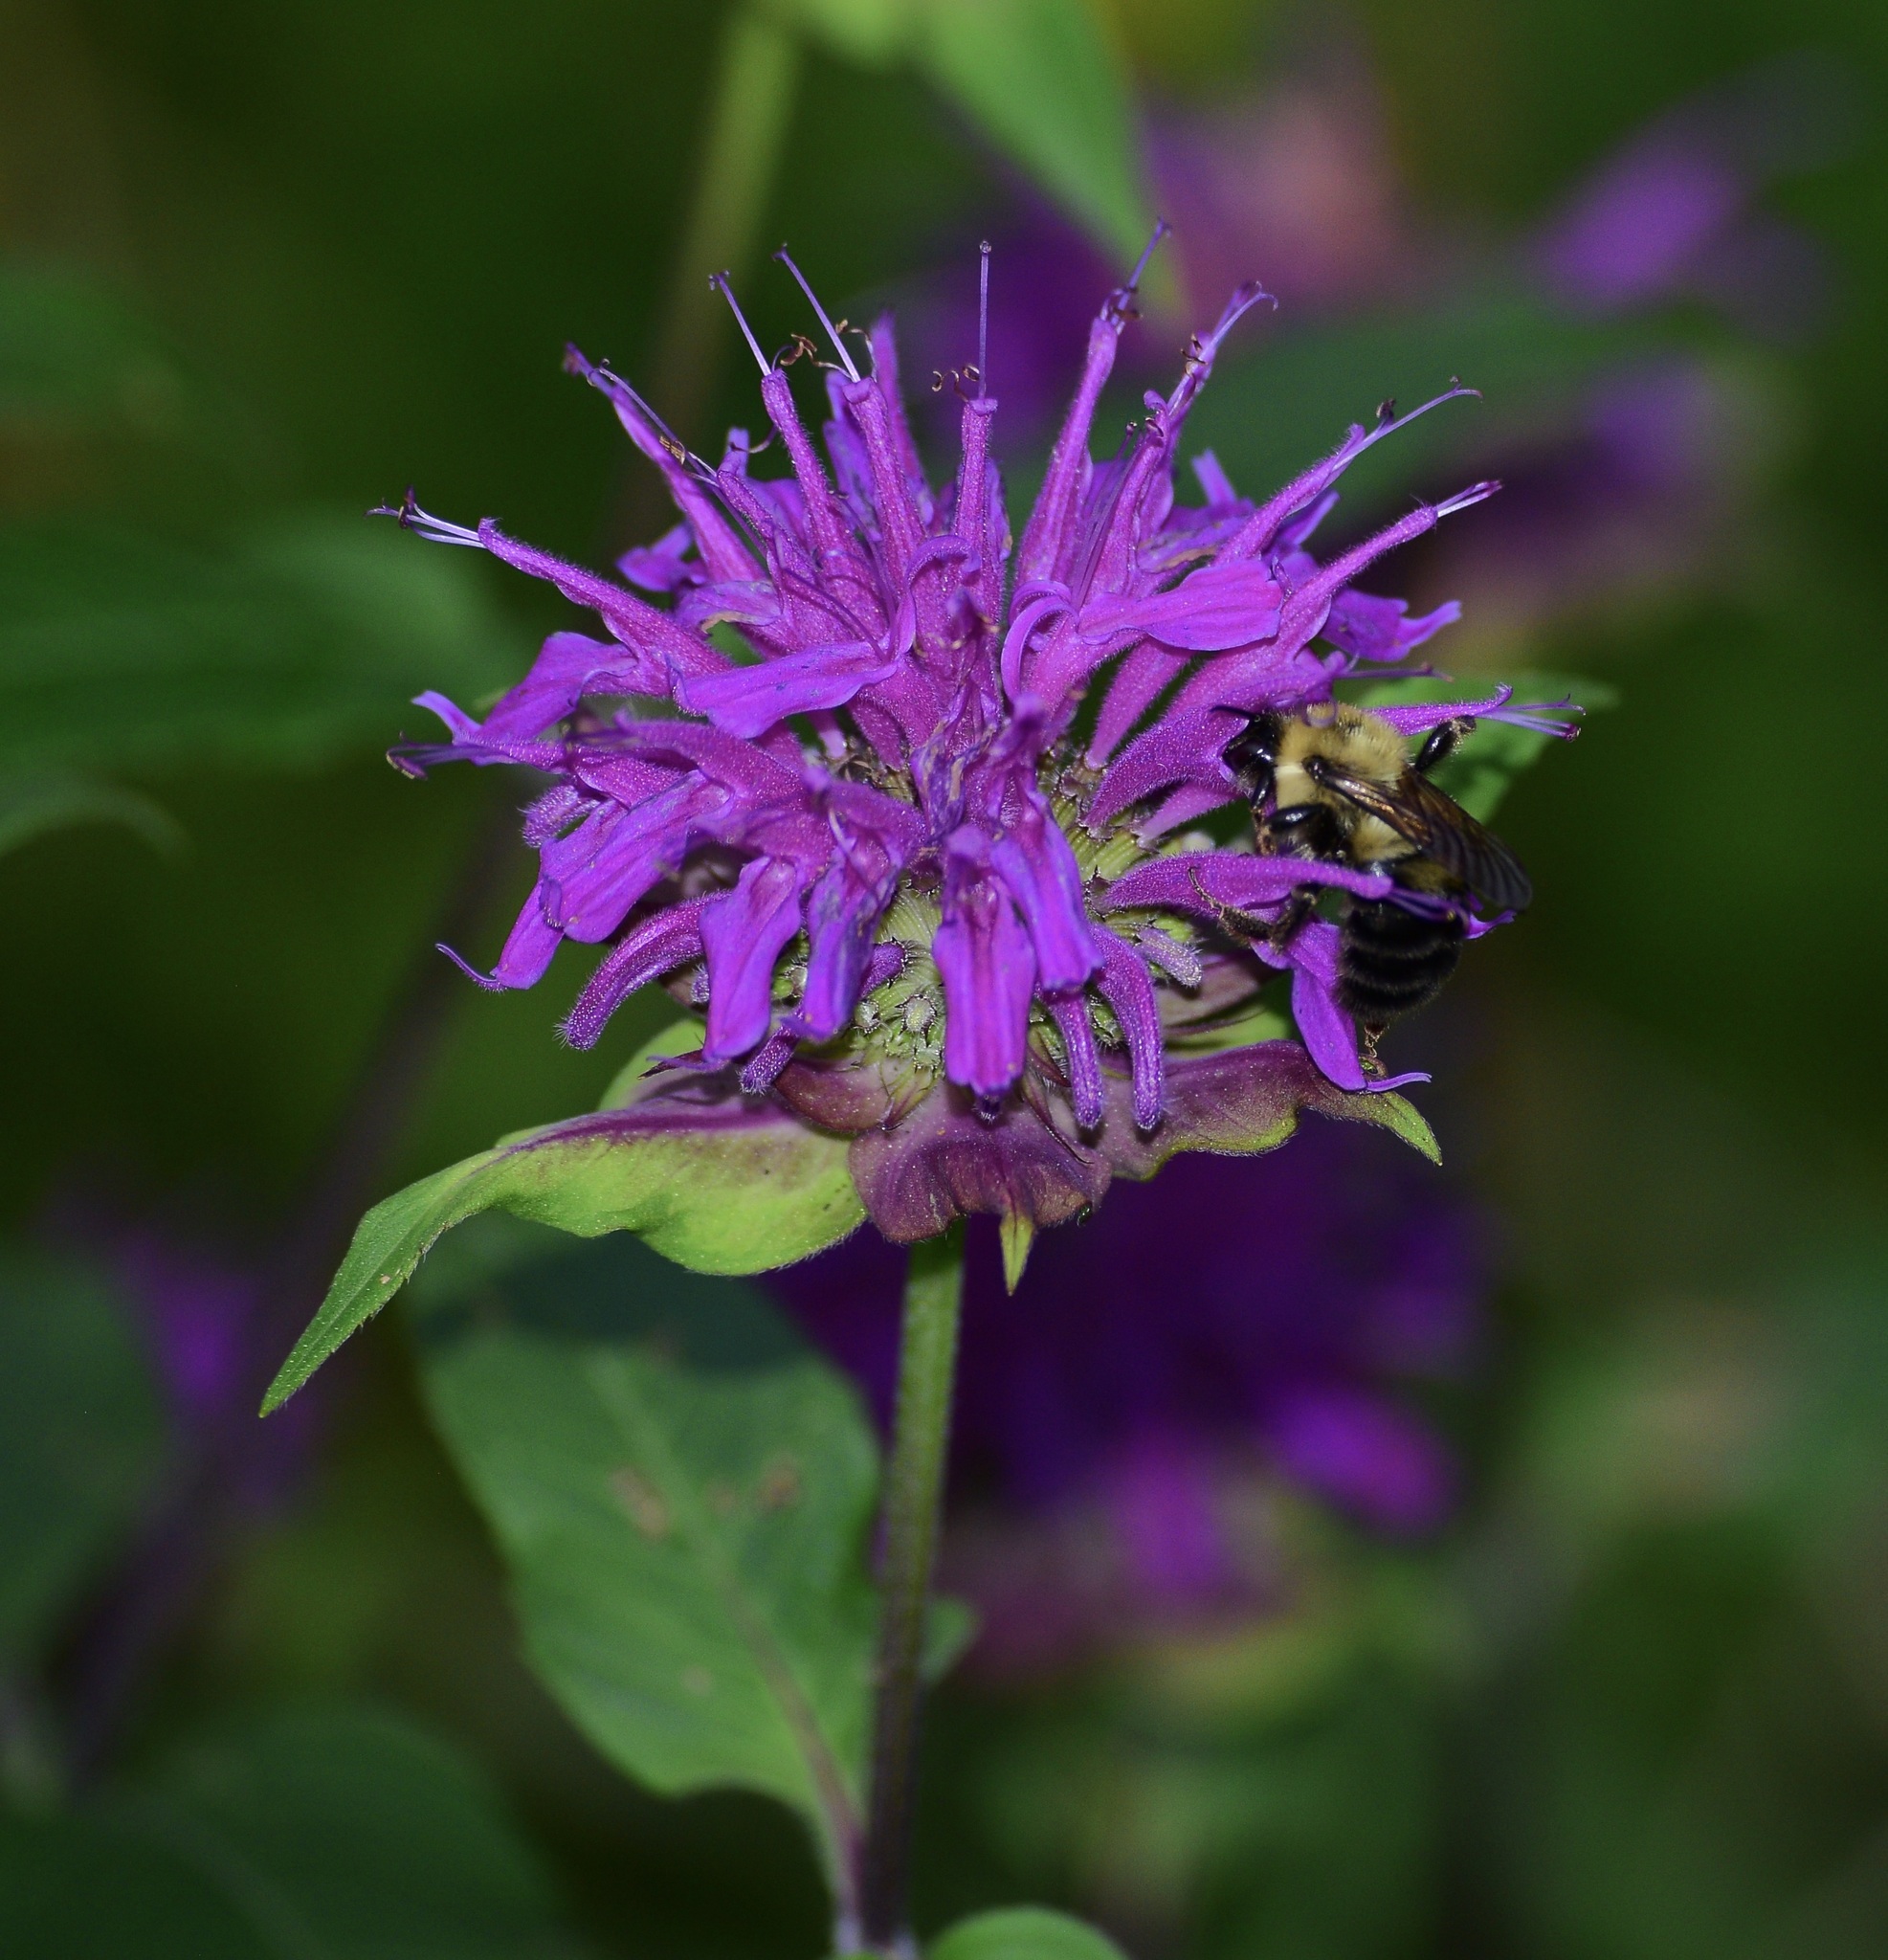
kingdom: Animalia
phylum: Arthropoda
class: Insecta
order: Hymenoptera
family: Apidae
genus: Bombus
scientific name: Bombus bimaculatus
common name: Two-spotted bumble bee
